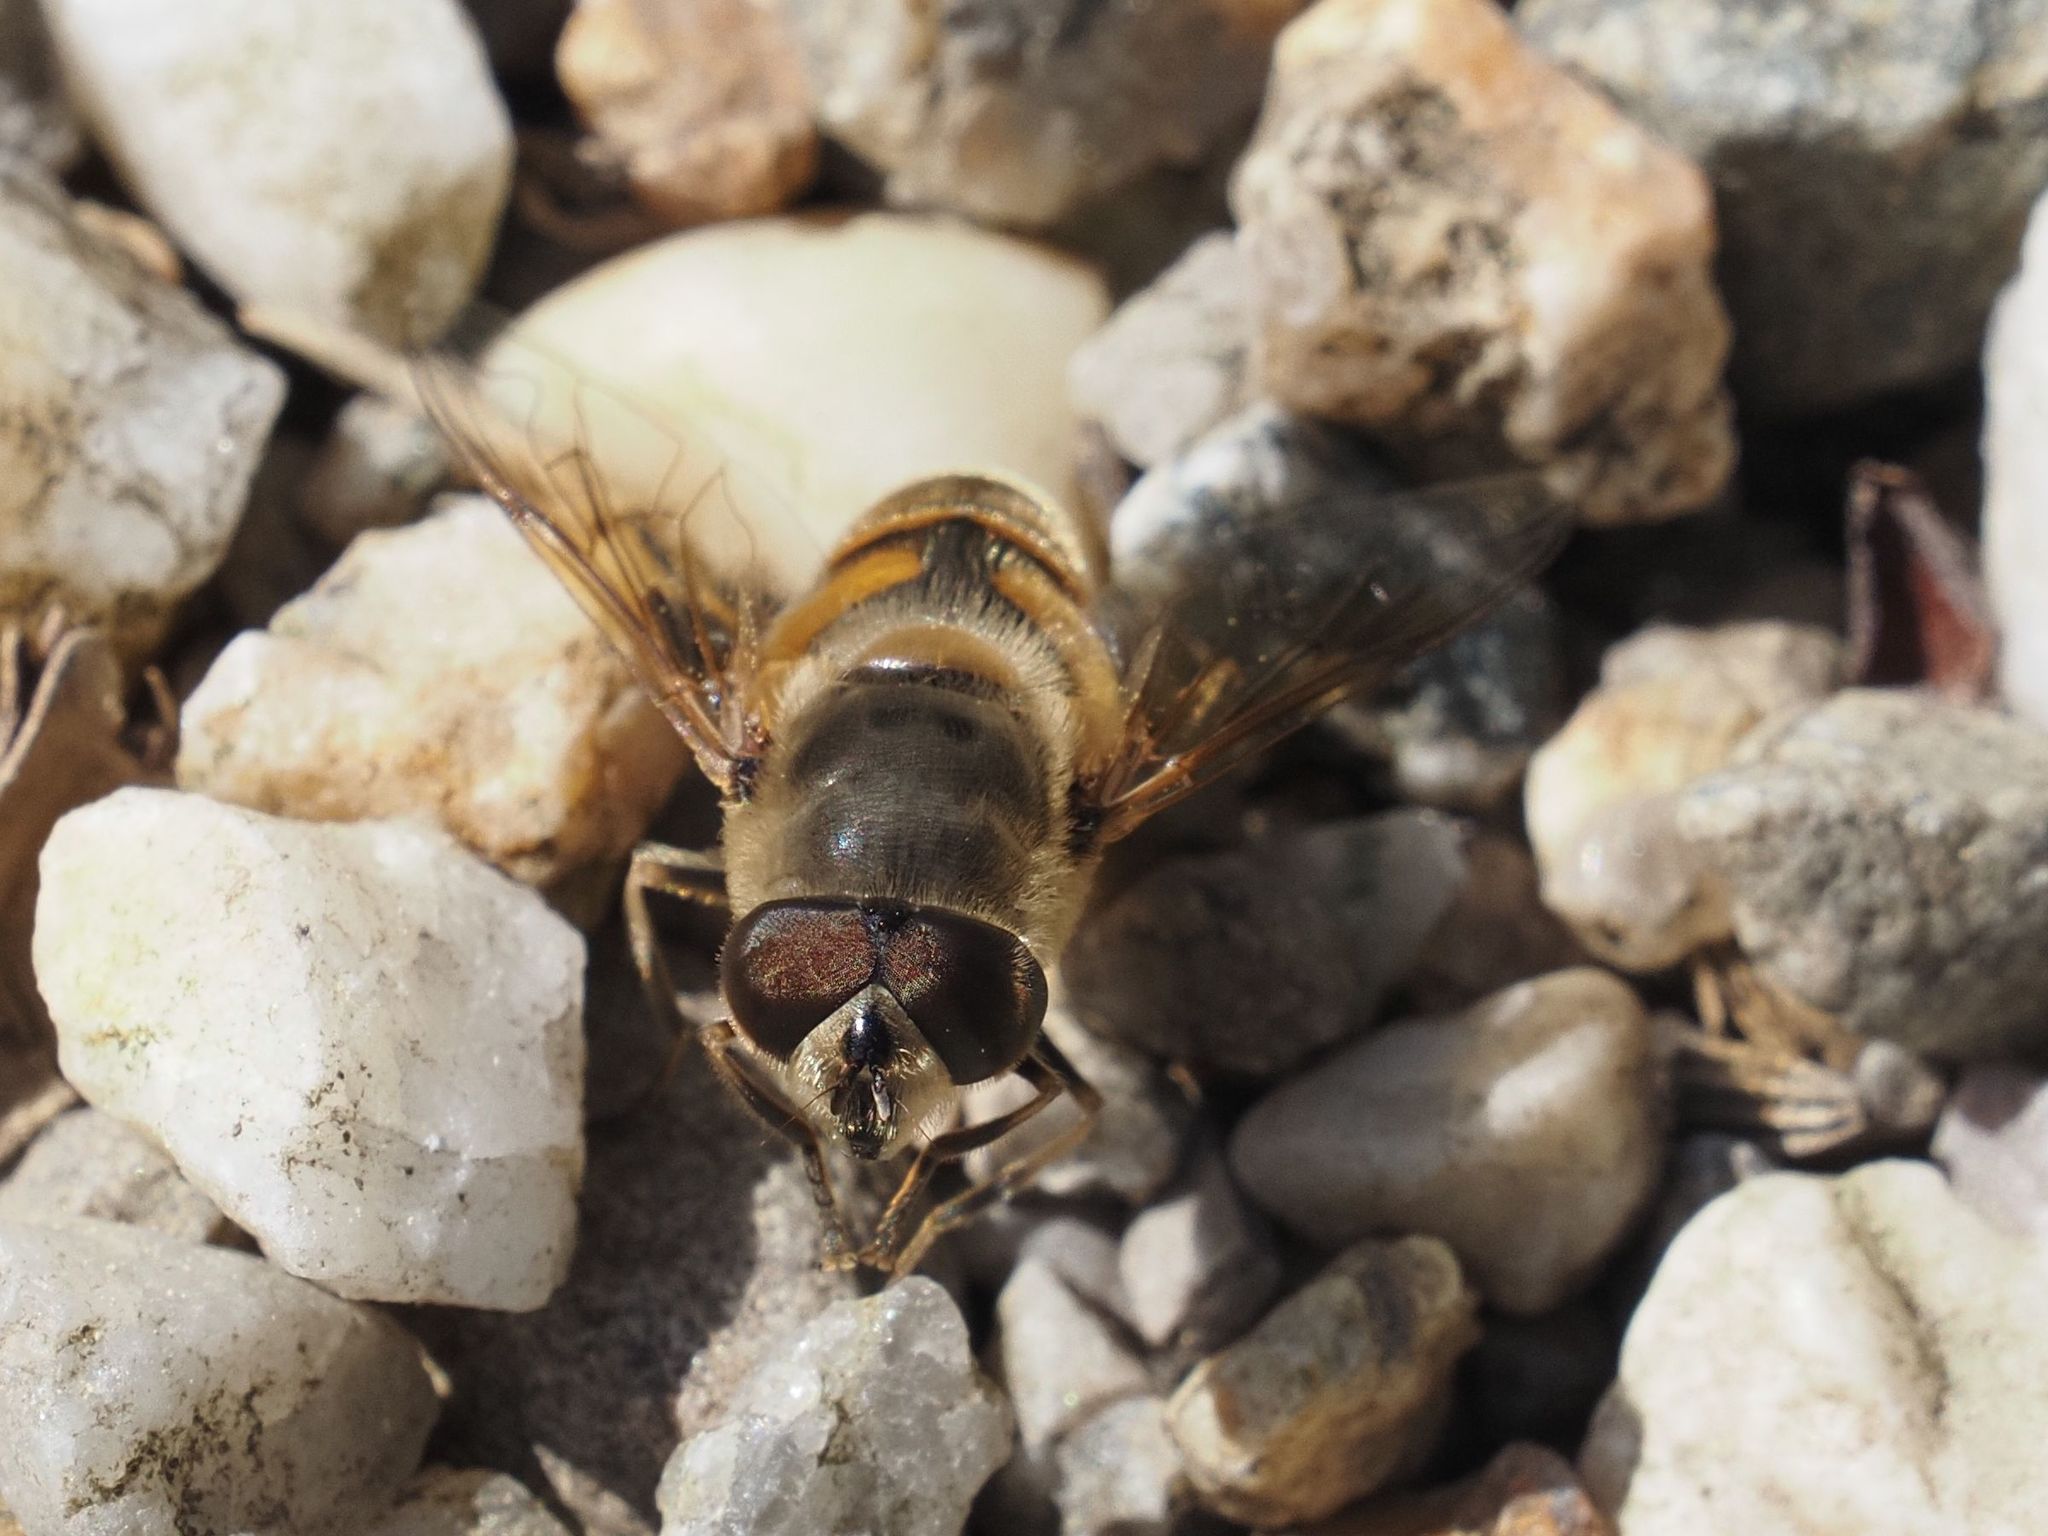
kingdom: Animalia
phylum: Arthropoda
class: Insecta
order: Diptera
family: Syrphidae
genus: Eristalis
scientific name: Eristalis tenax
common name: Drone fly
